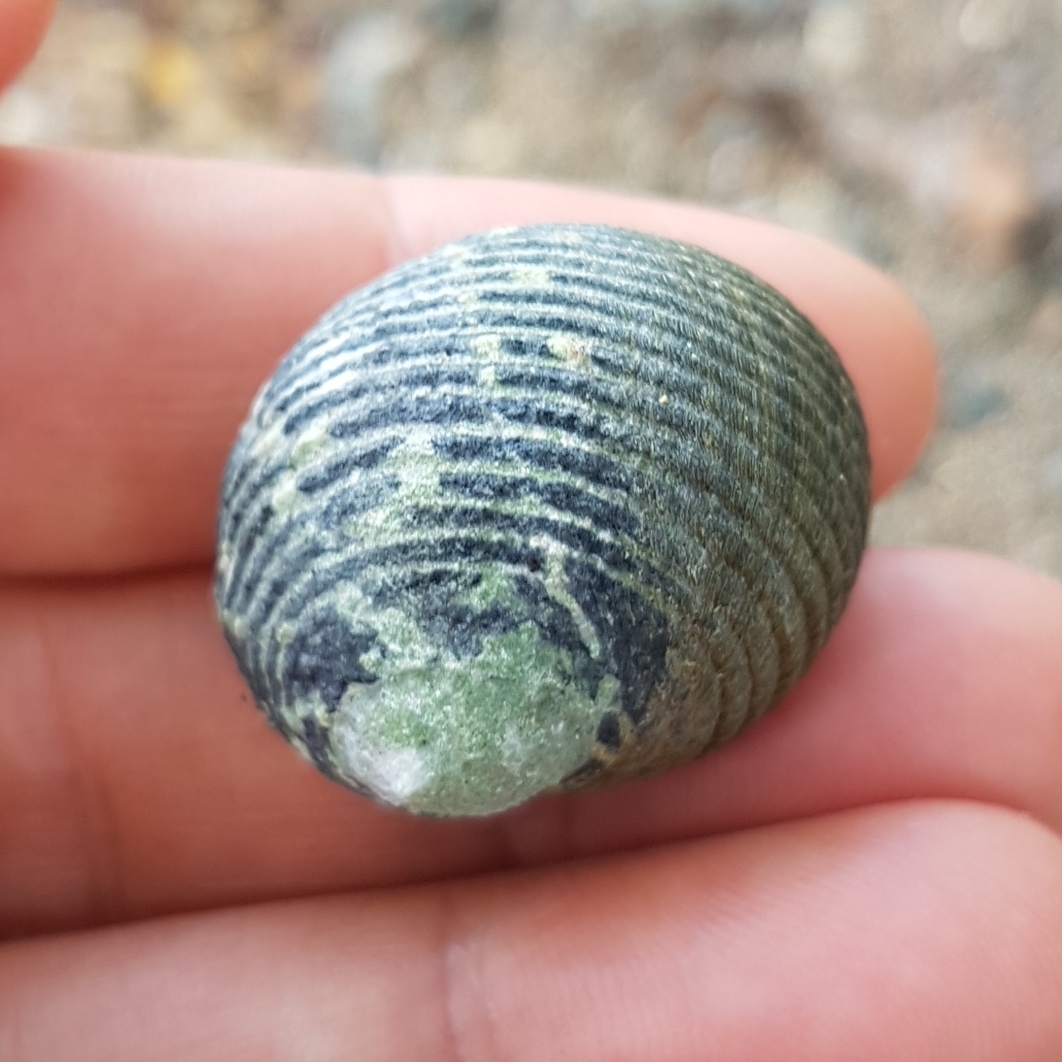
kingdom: Animalia
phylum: Mollusca
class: Gastropoda
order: Cycloneritida
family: Neritidae
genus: Nerita
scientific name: Nerita scabricosta
